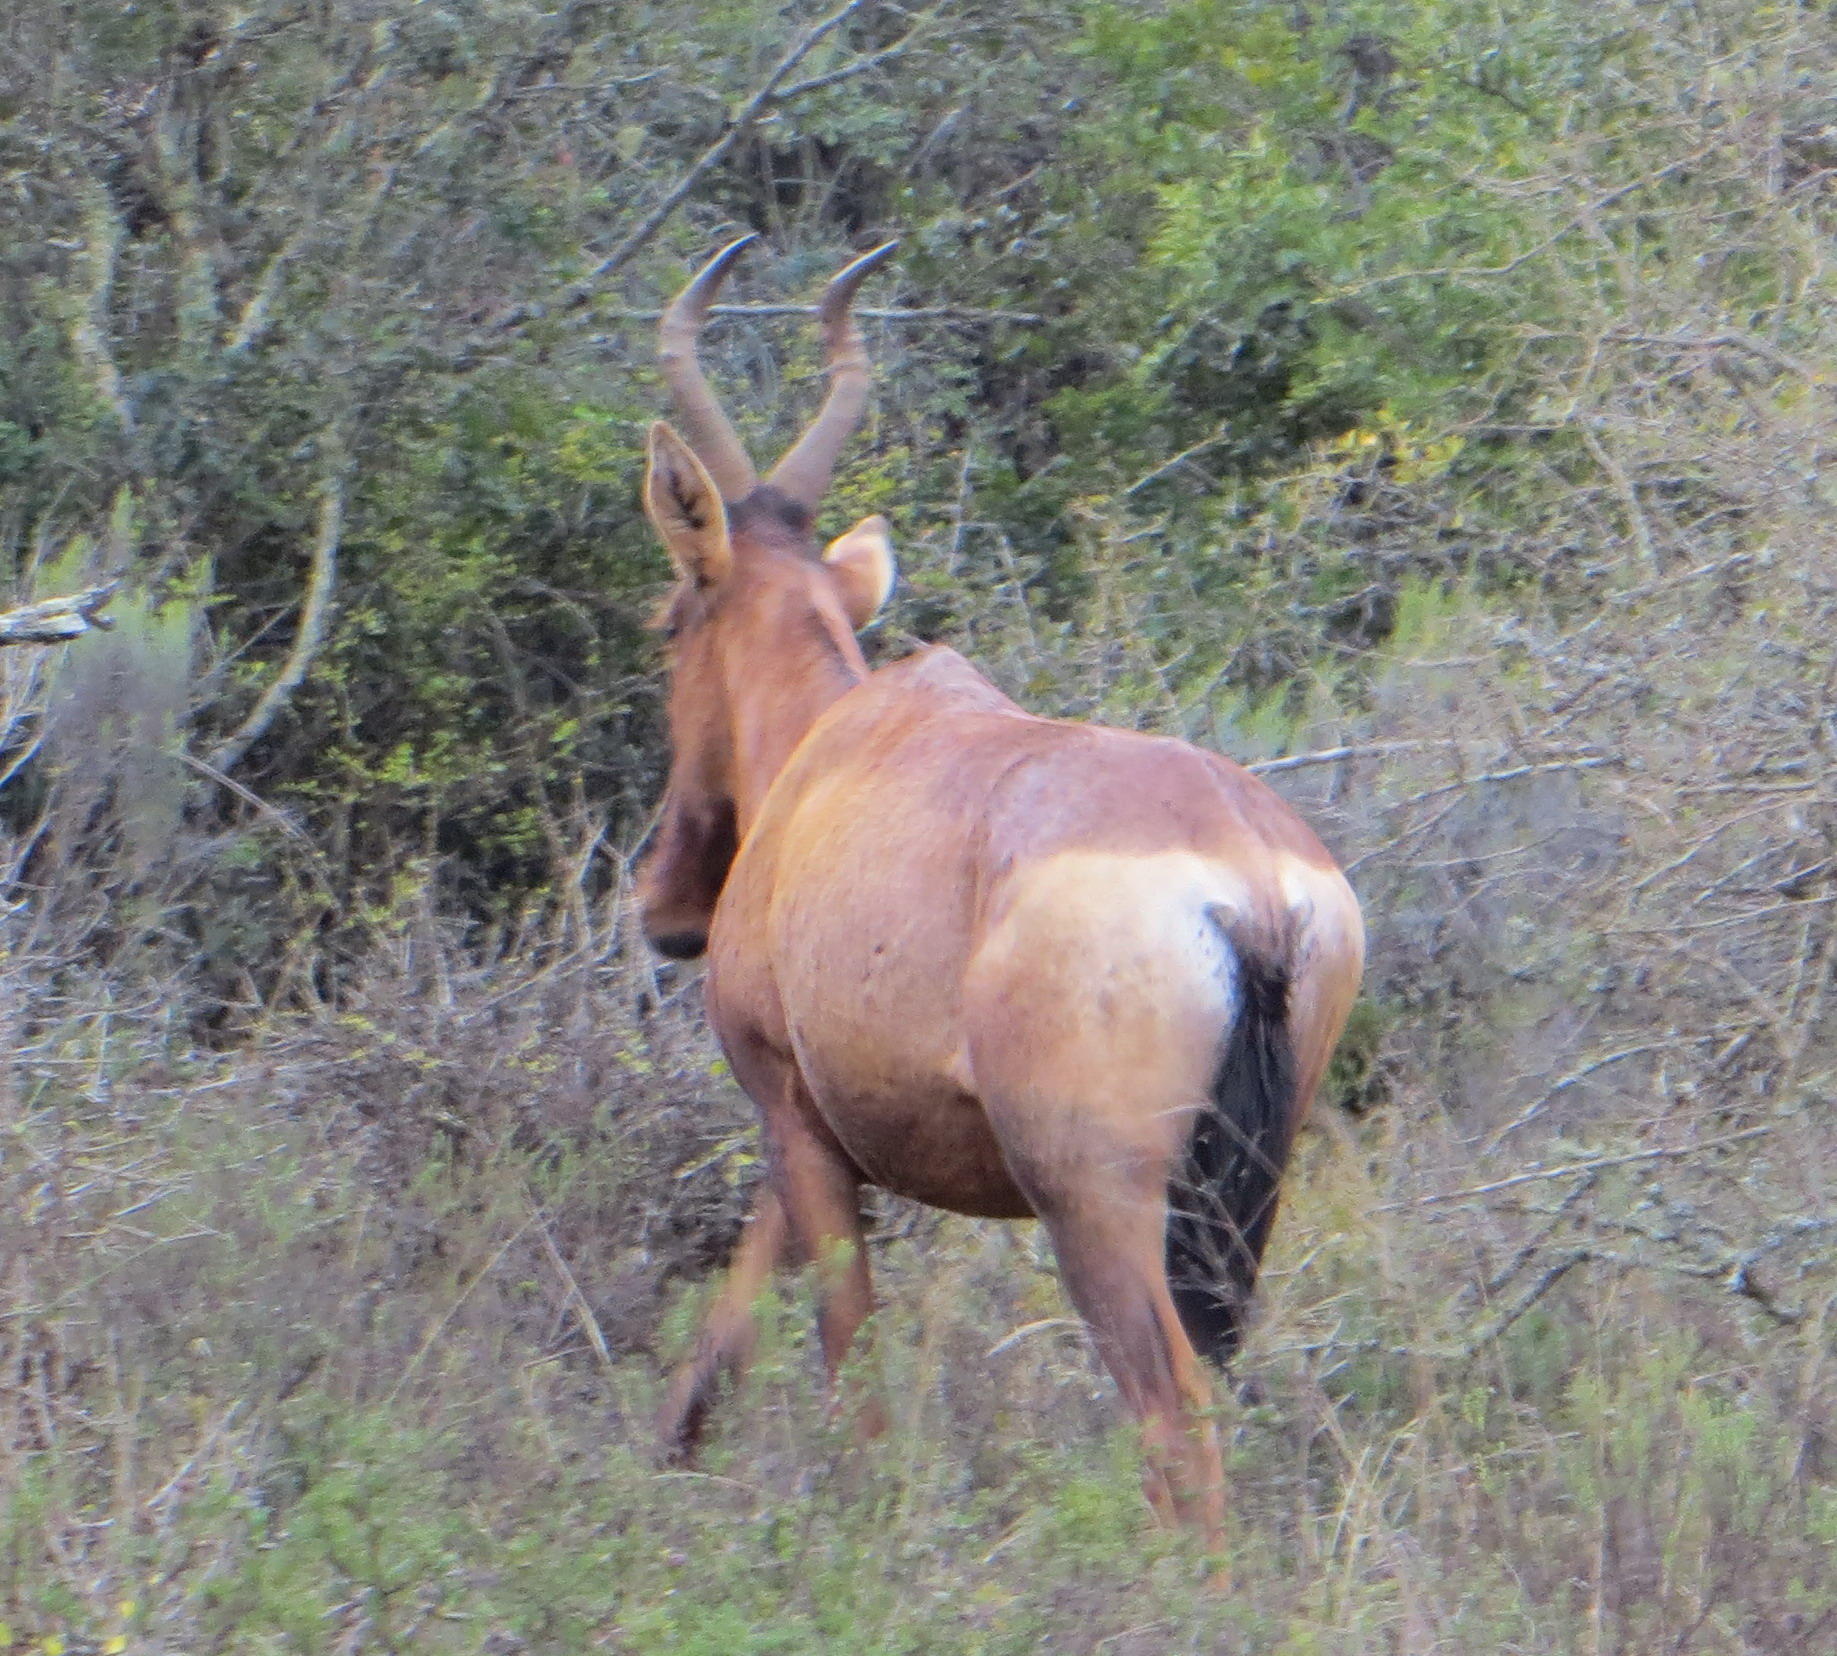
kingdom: Animalia
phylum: Chordata
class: Mammalia
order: Artiodactyla
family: Bovidae
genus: Alcelaphus
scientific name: Alcelaphus caama
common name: Red hartebeest
